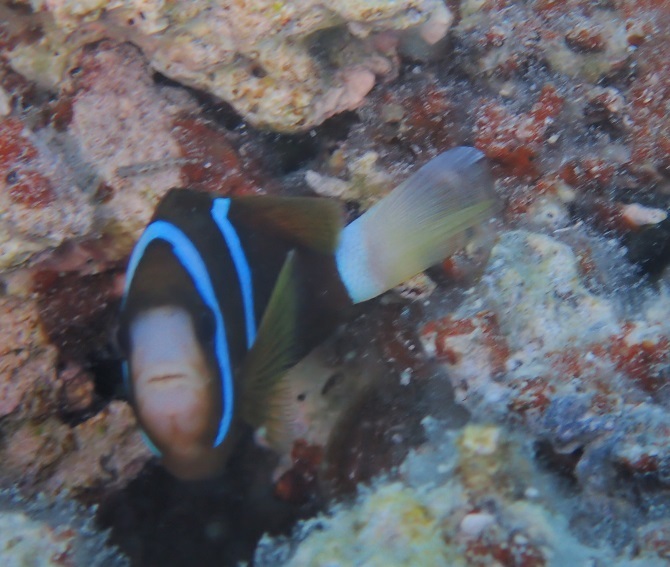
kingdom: Animalia
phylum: Chordata
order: Perciformes
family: Pomacentridae
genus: Amphiprion
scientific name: Amphiprion akindynos
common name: Barrier reef anemonefish
